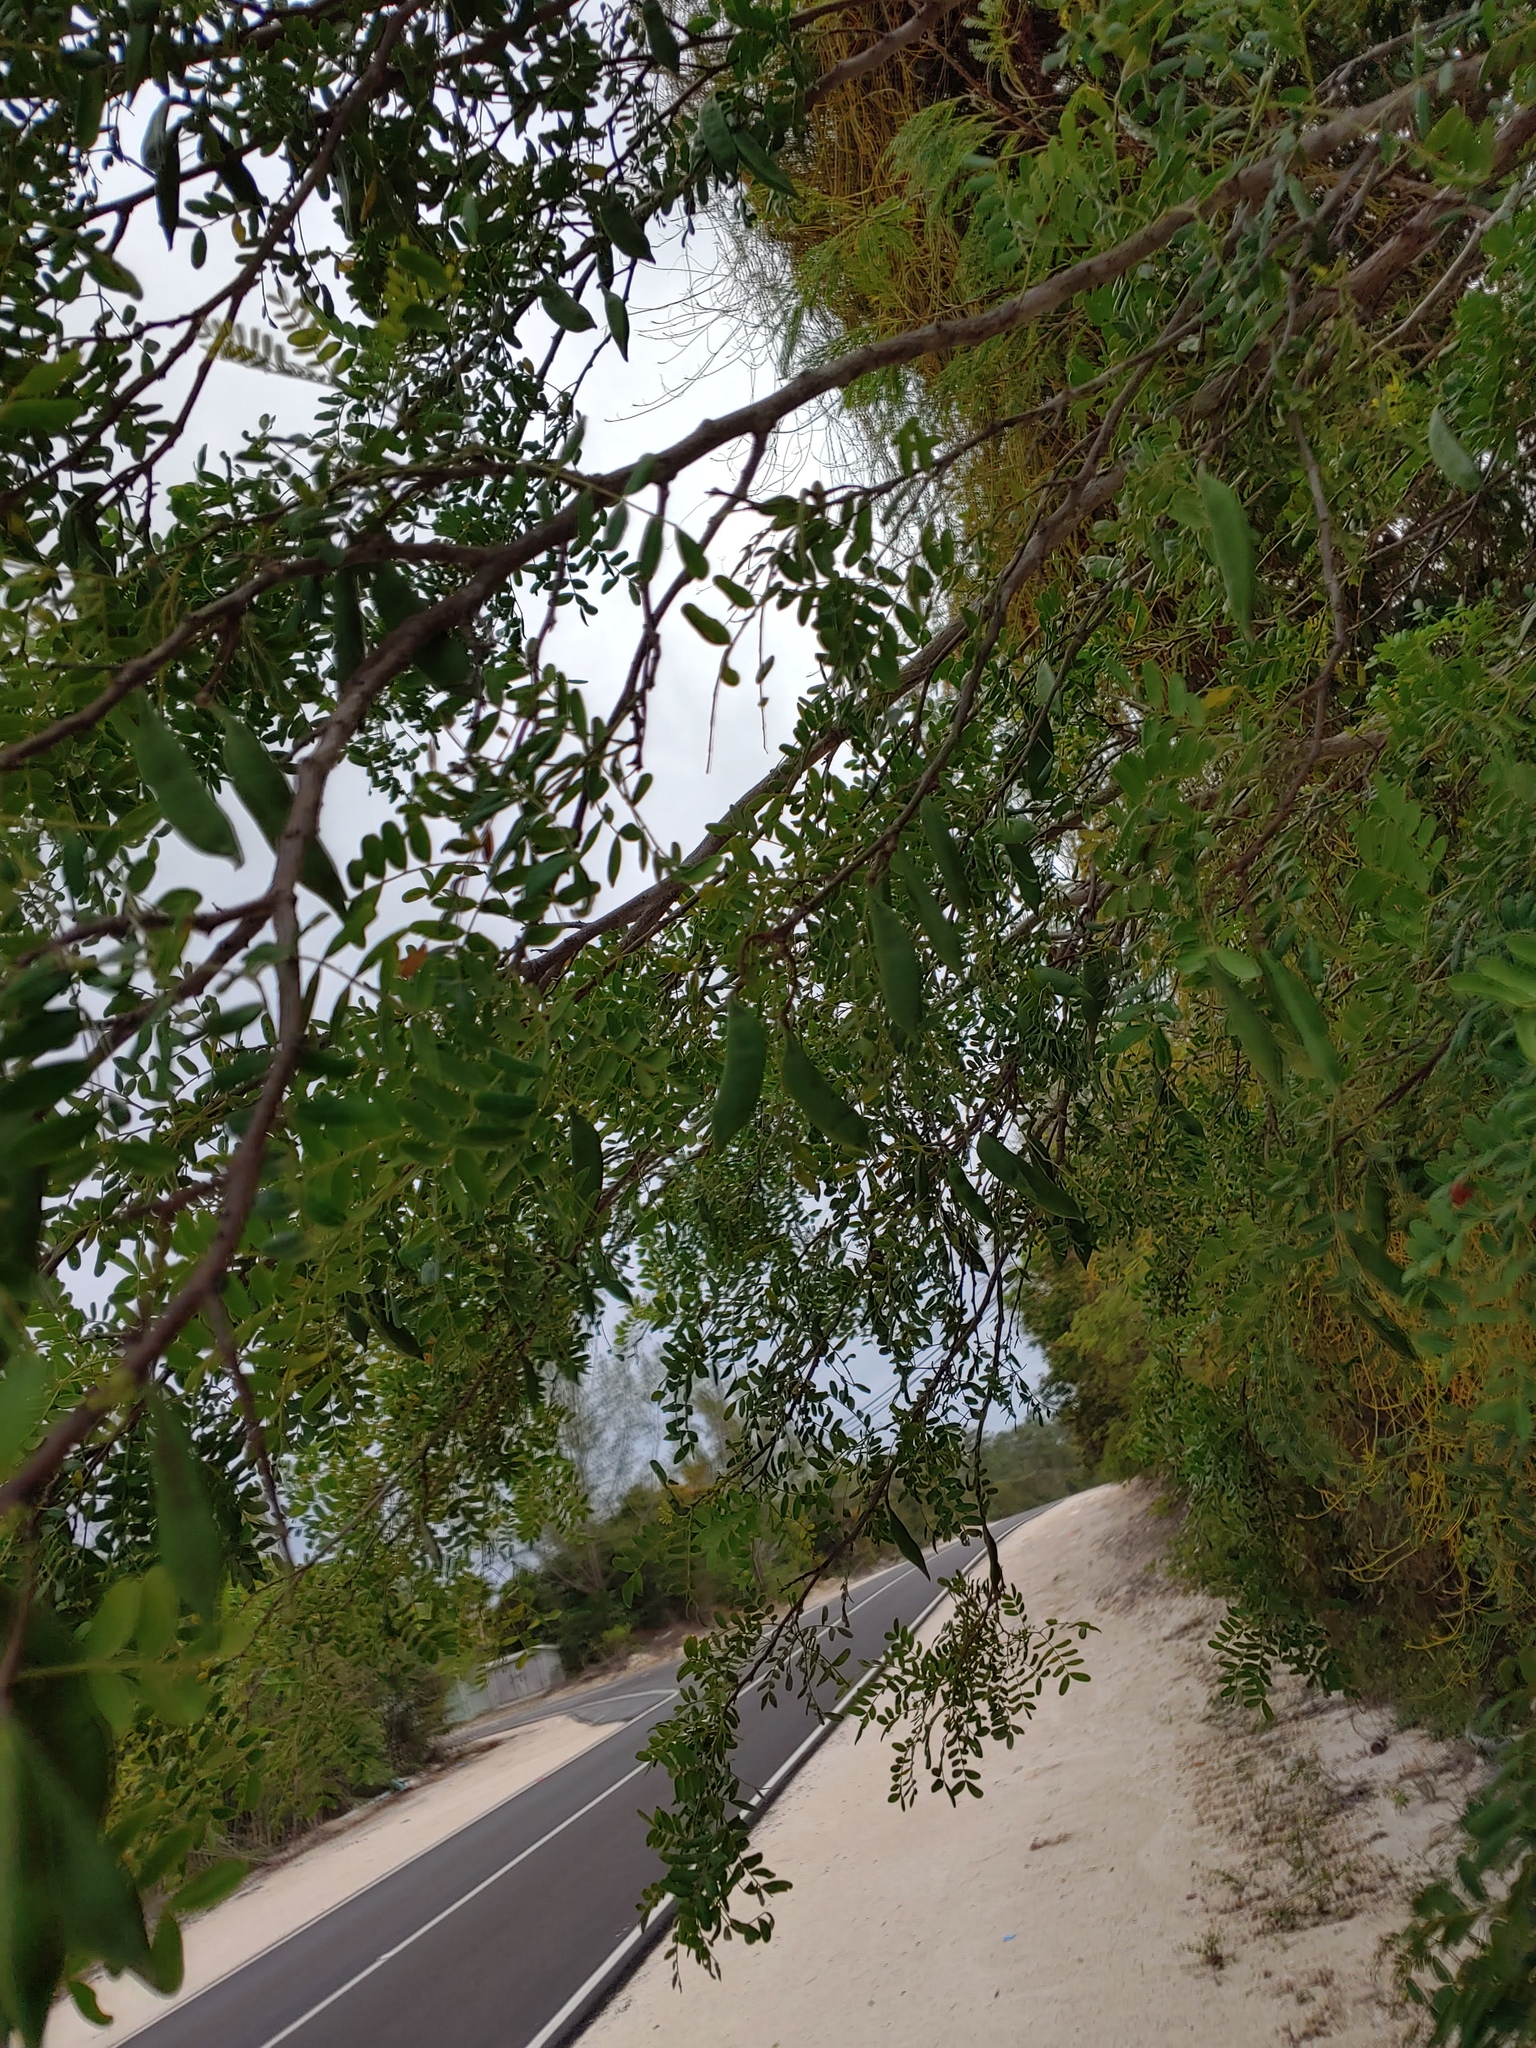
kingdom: Plantae
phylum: Tracheophyta
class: Magnoliopsida
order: Fabales
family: Fabaceae
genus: Vachellia
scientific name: Vachellia choriophylla
